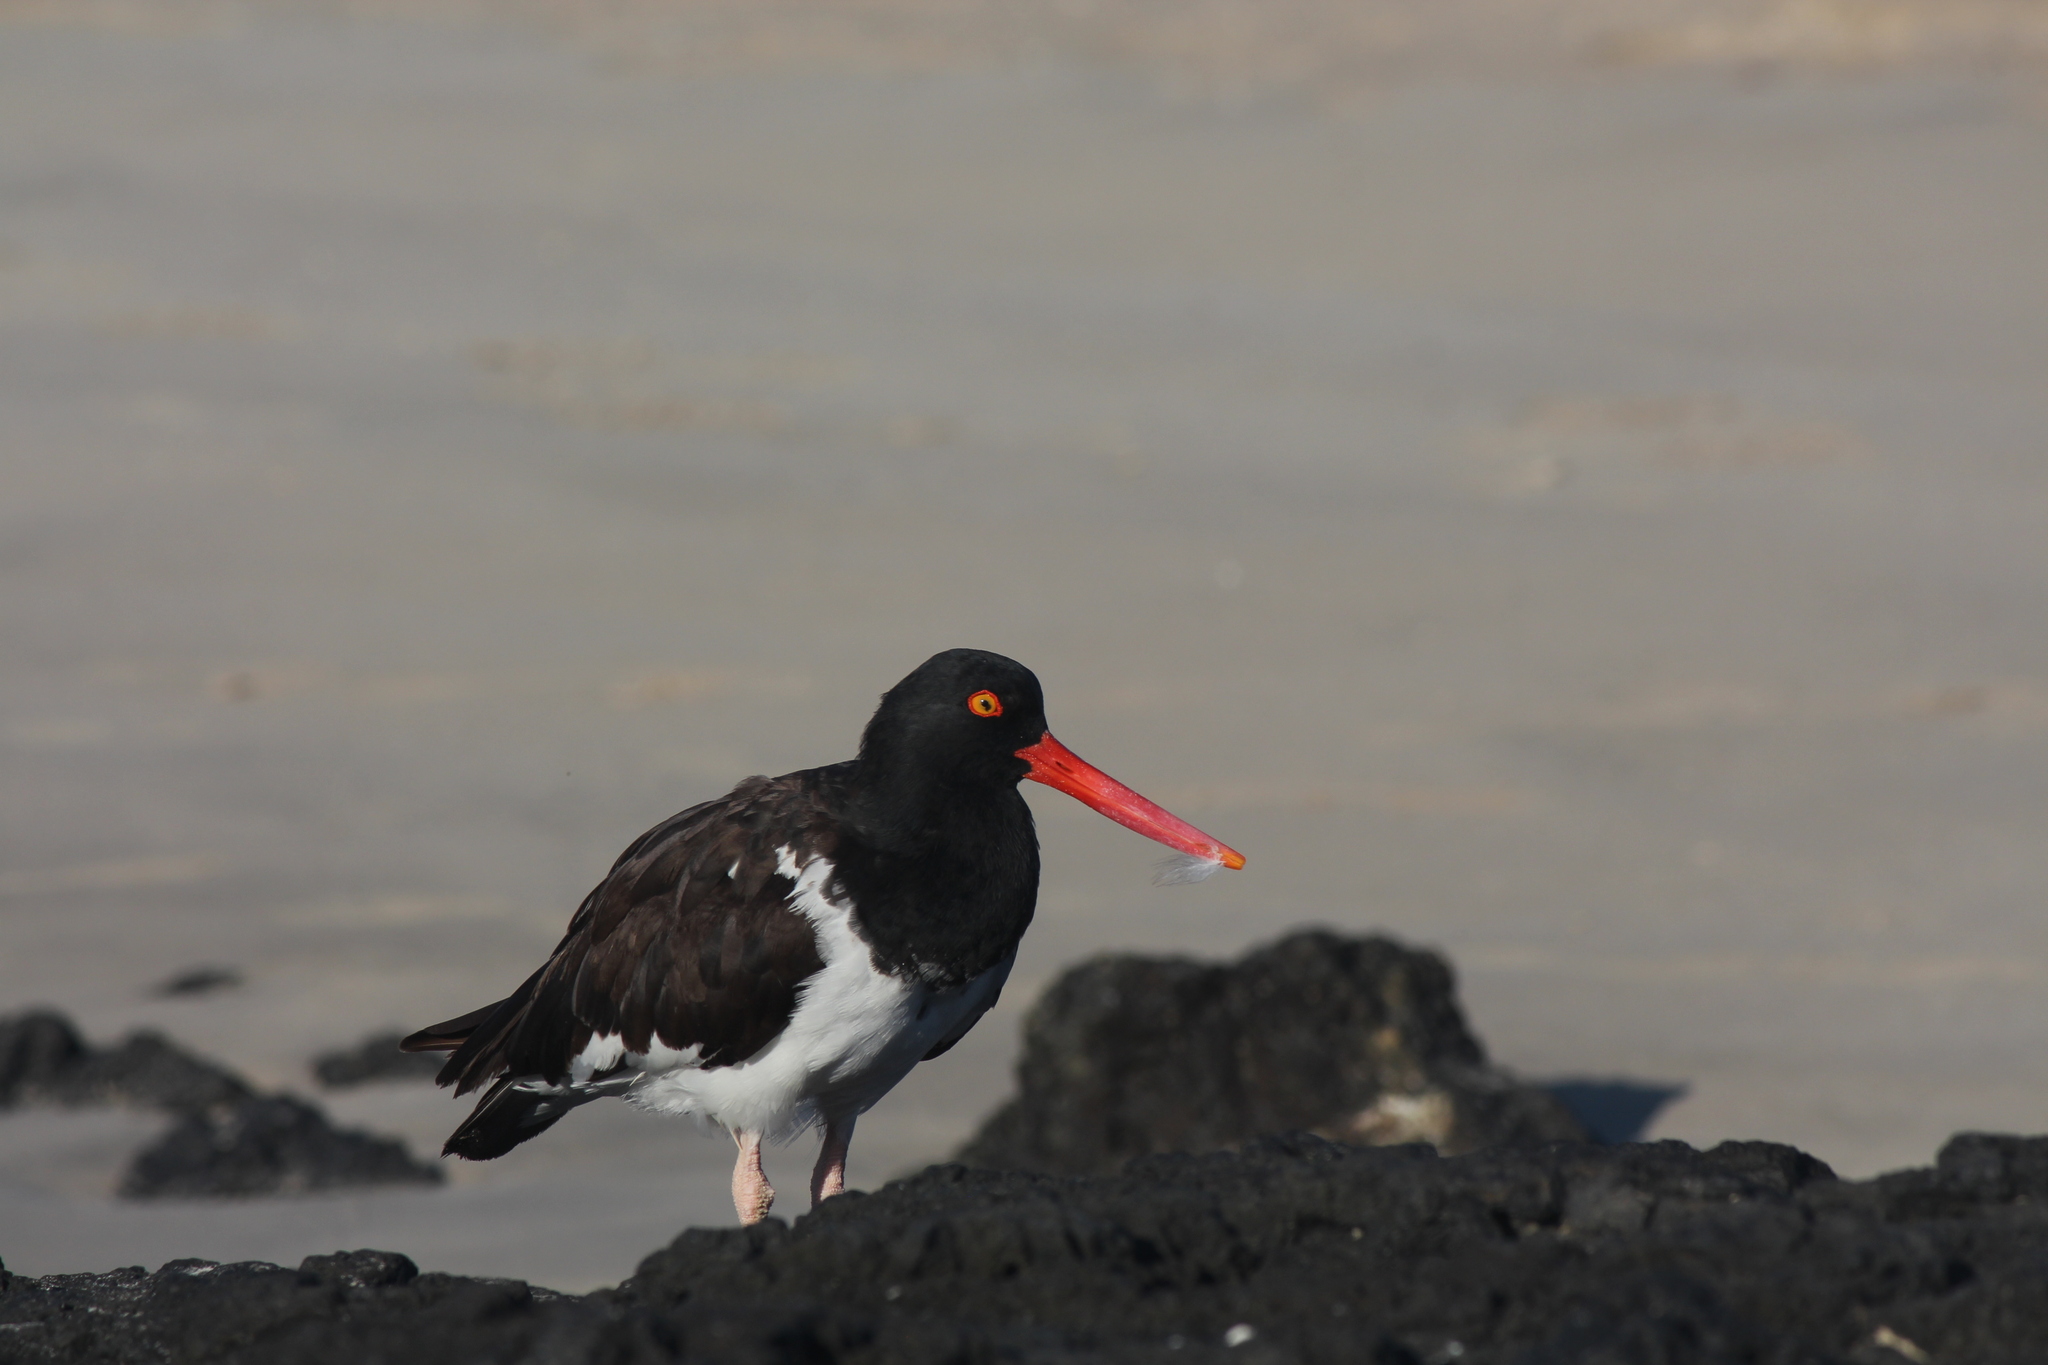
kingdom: Animalia
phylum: Chordata
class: Aves
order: Charadriiformes
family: Haematopodidae
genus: Haematopus
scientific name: Haematopus palliatus
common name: American oystercatcher
